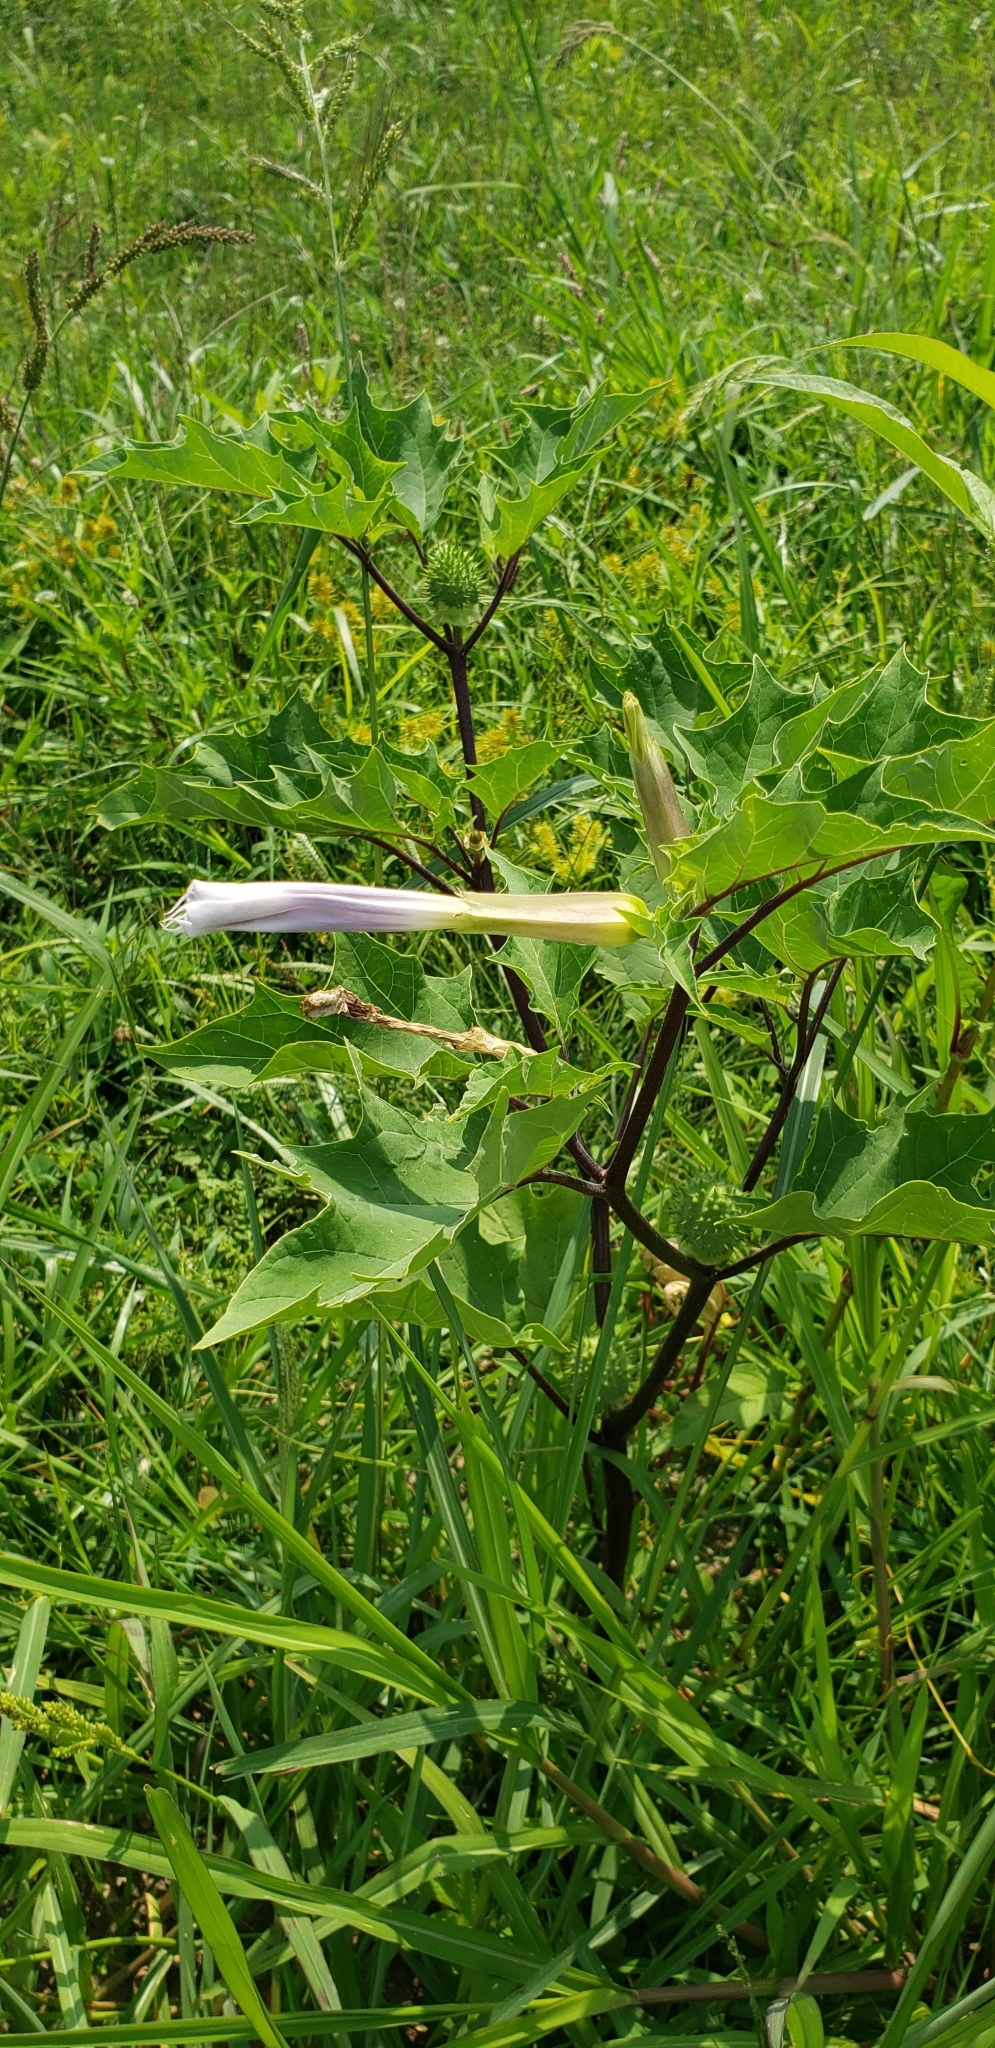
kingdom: Plantae
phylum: Tracheophyta
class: Magnoliopsida
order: Solanales
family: Solanaceae
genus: Datura
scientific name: Datura stramonium
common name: Thorn-apple
